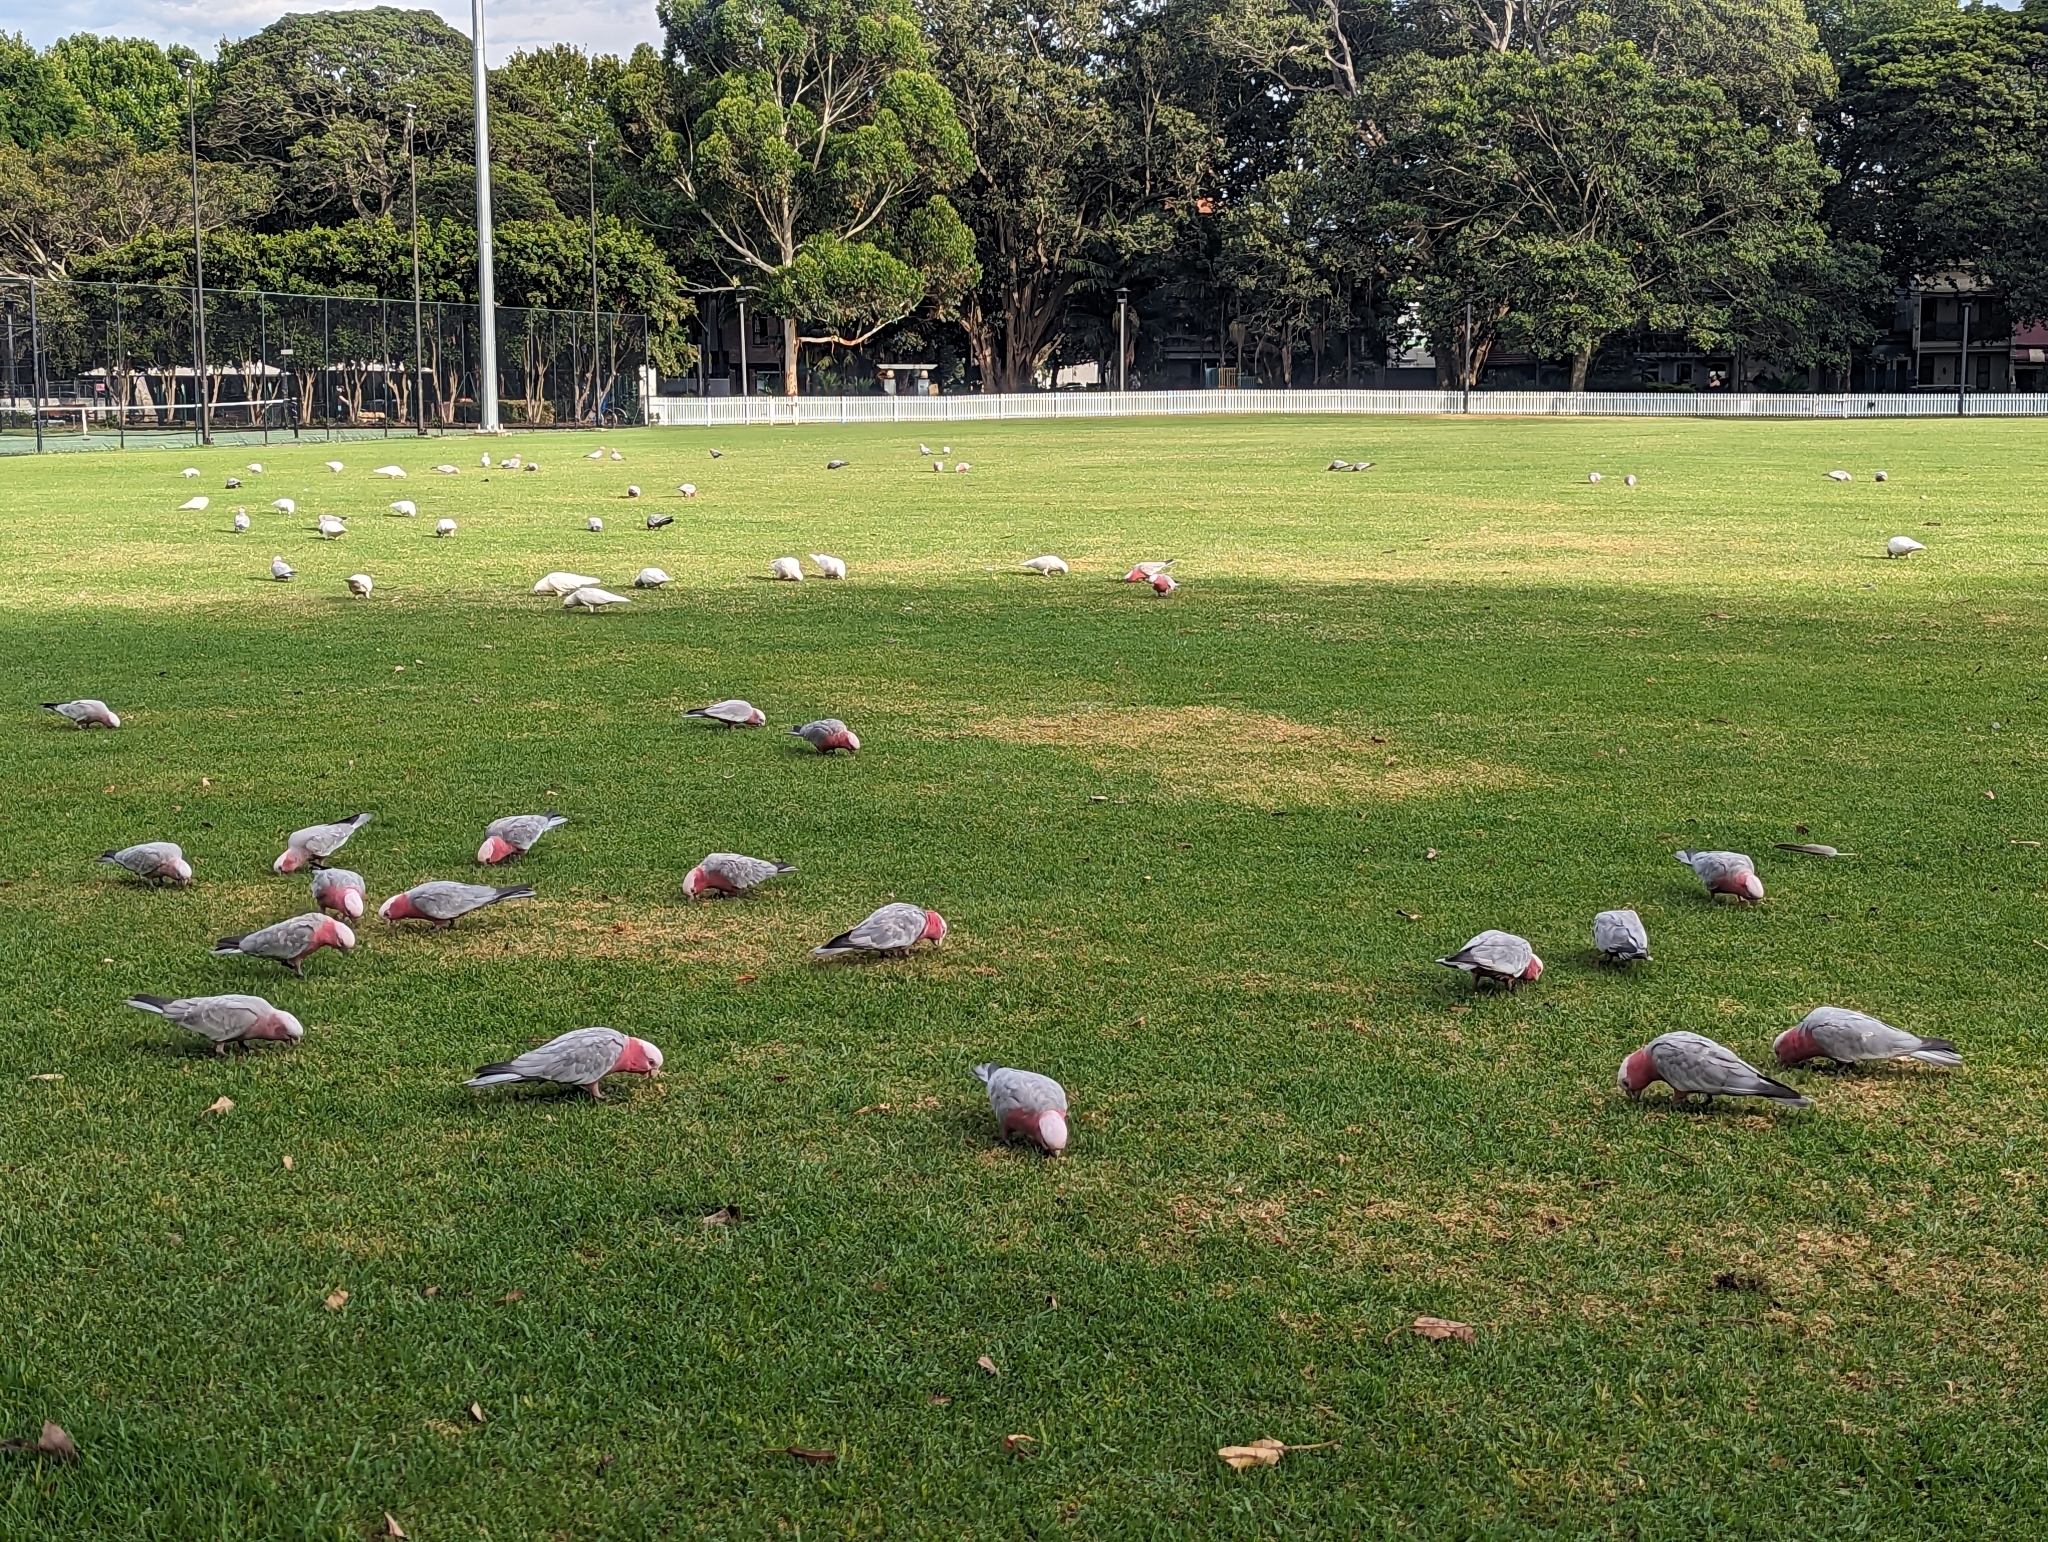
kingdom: Animalia
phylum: Chordata
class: Aves
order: Psittaciformes
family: Psittacidae
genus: Eolophus
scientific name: Eolophus roseicapilla
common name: Galah
